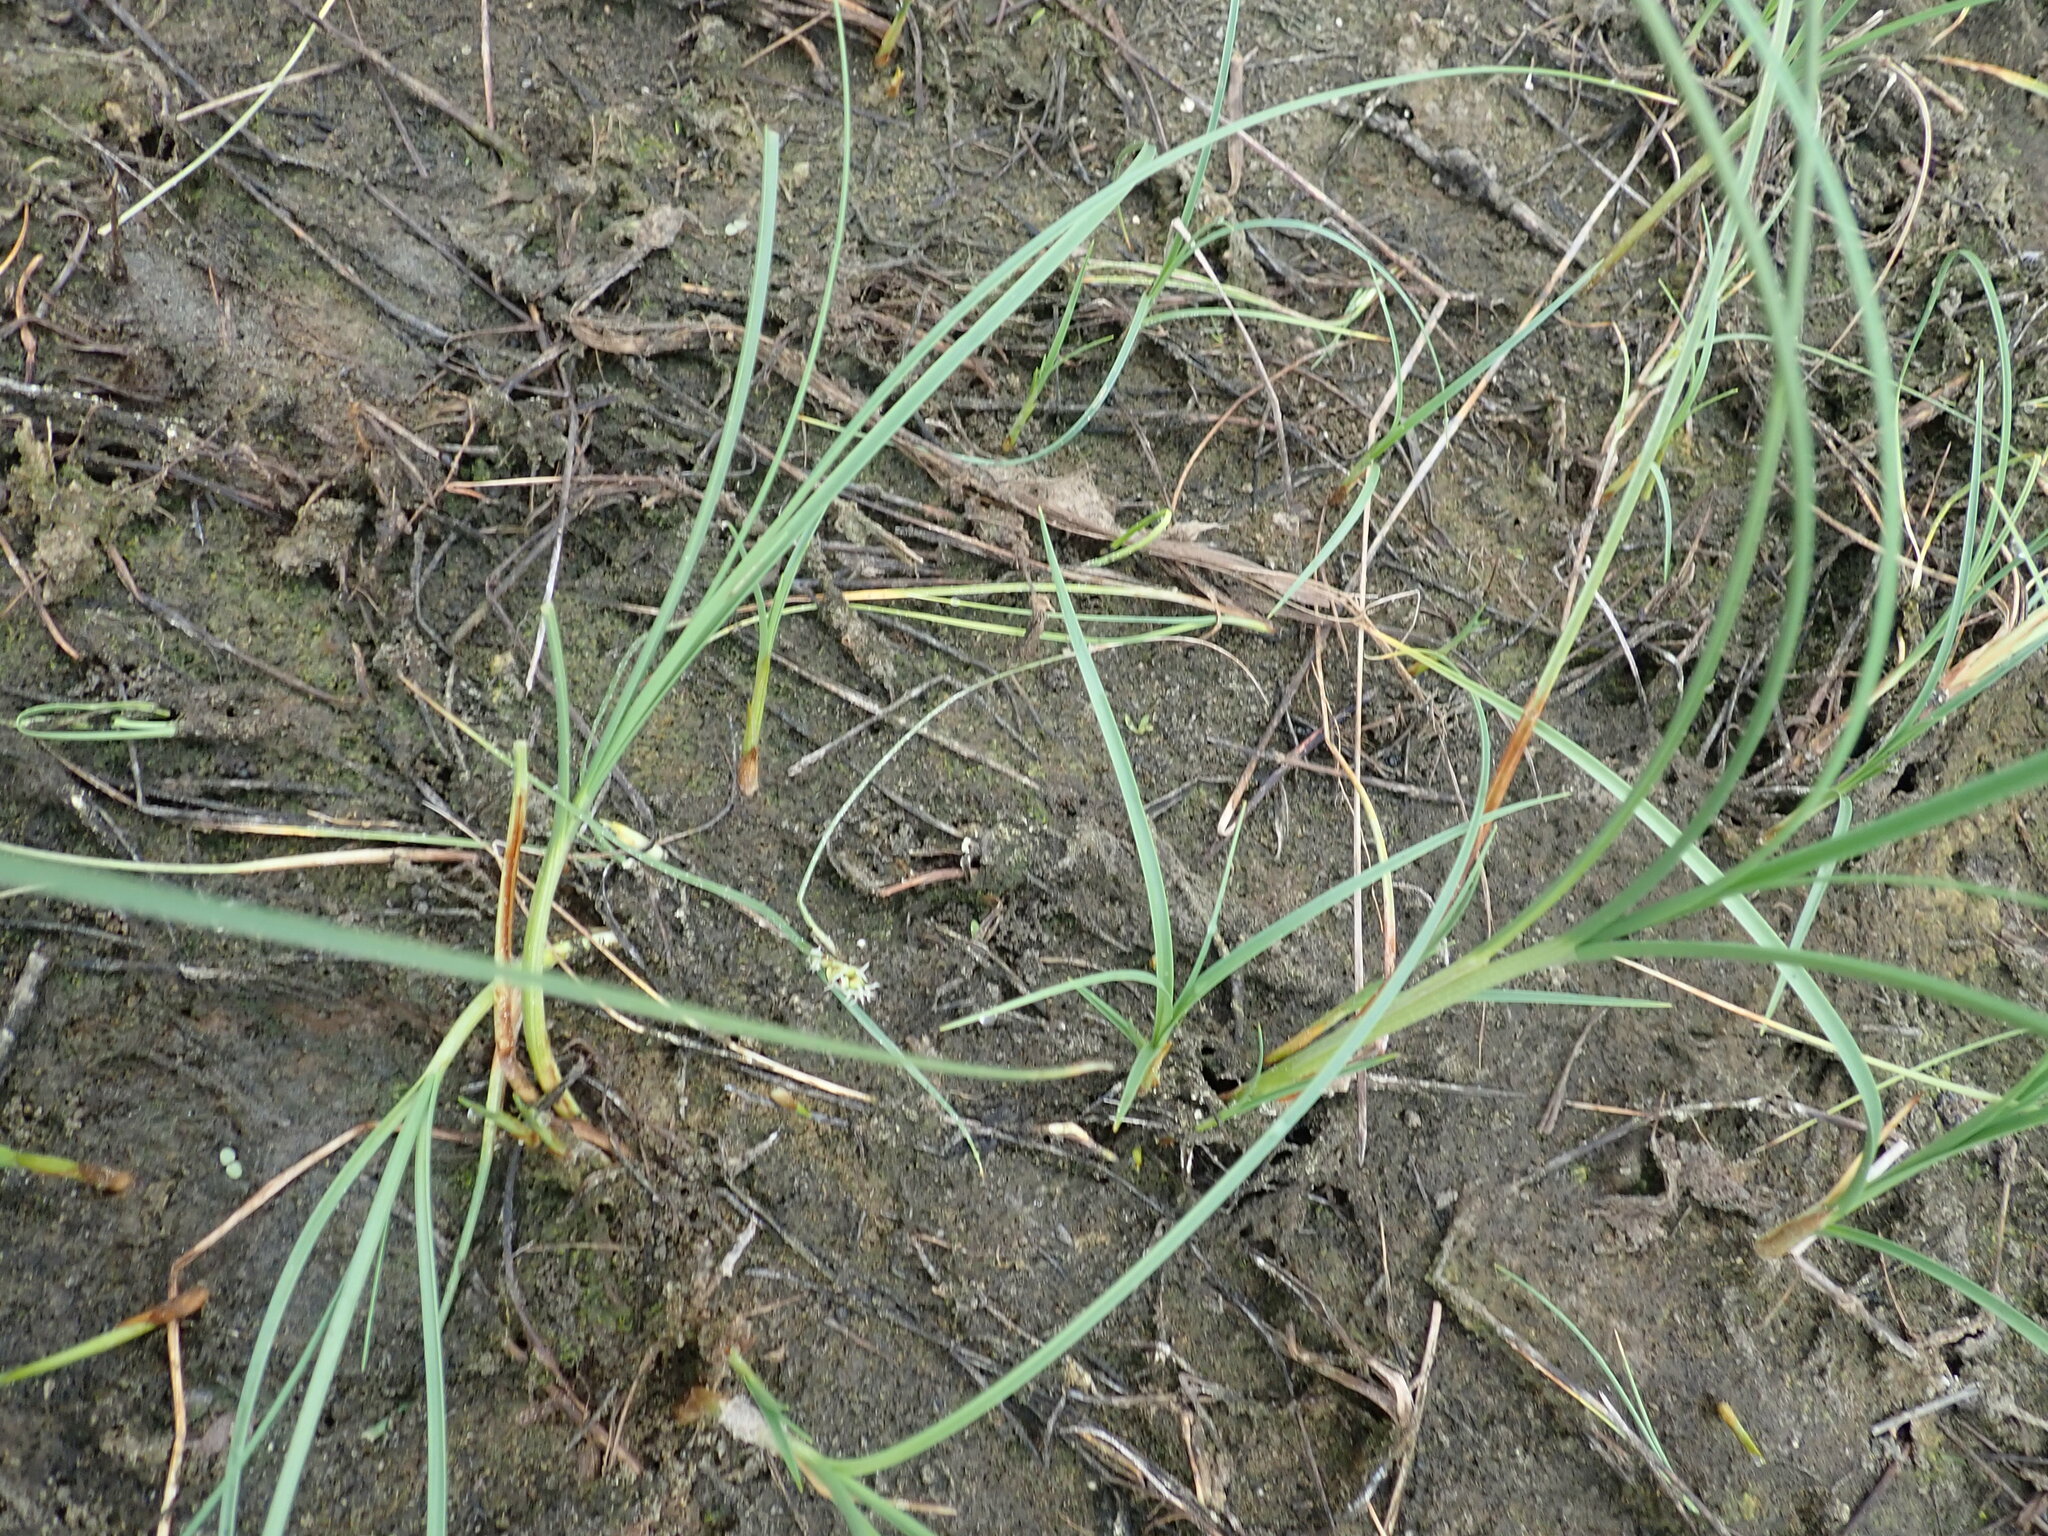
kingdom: Plantae
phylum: Tracheophyta
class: Liliopsida
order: Poales
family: Cyperaceae
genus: Carex
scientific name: Carex pumila
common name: Dwarf sedge
